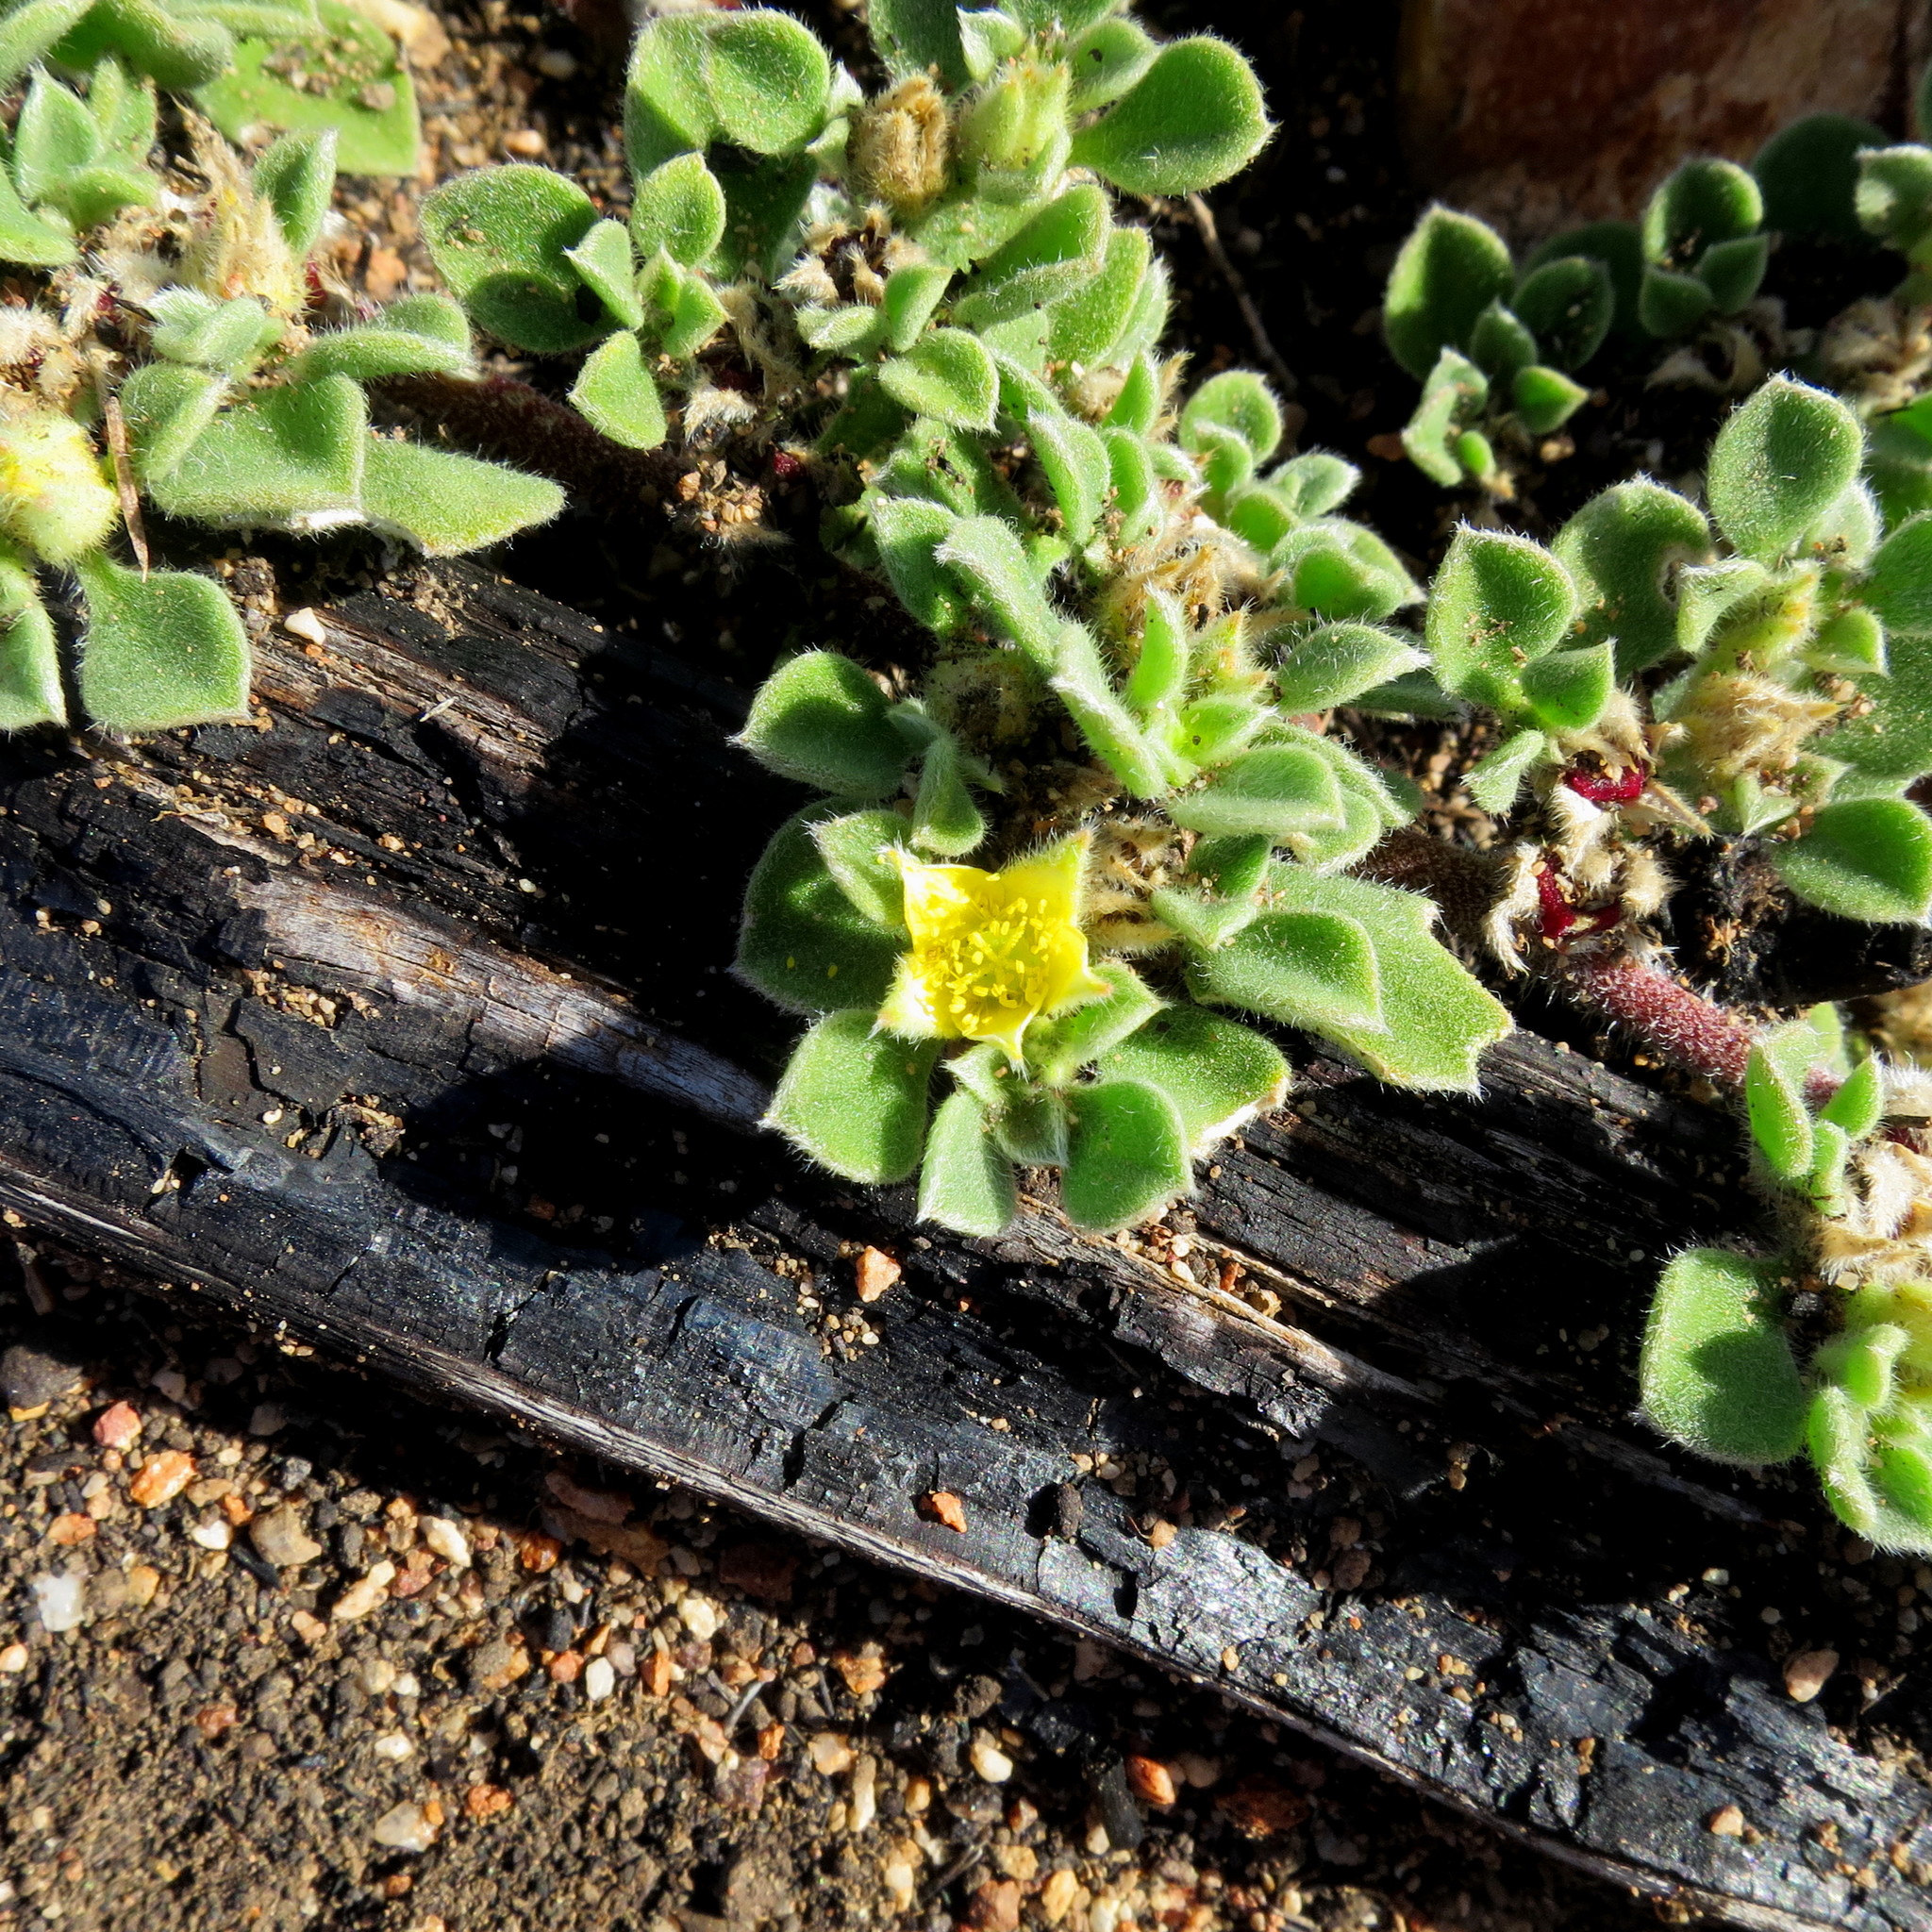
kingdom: Plantae
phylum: Tracheophyta
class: Magnoliopsida
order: Caryophyllales
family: Aizoaceae
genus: Aizoon
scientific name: Aizoon glinoides
